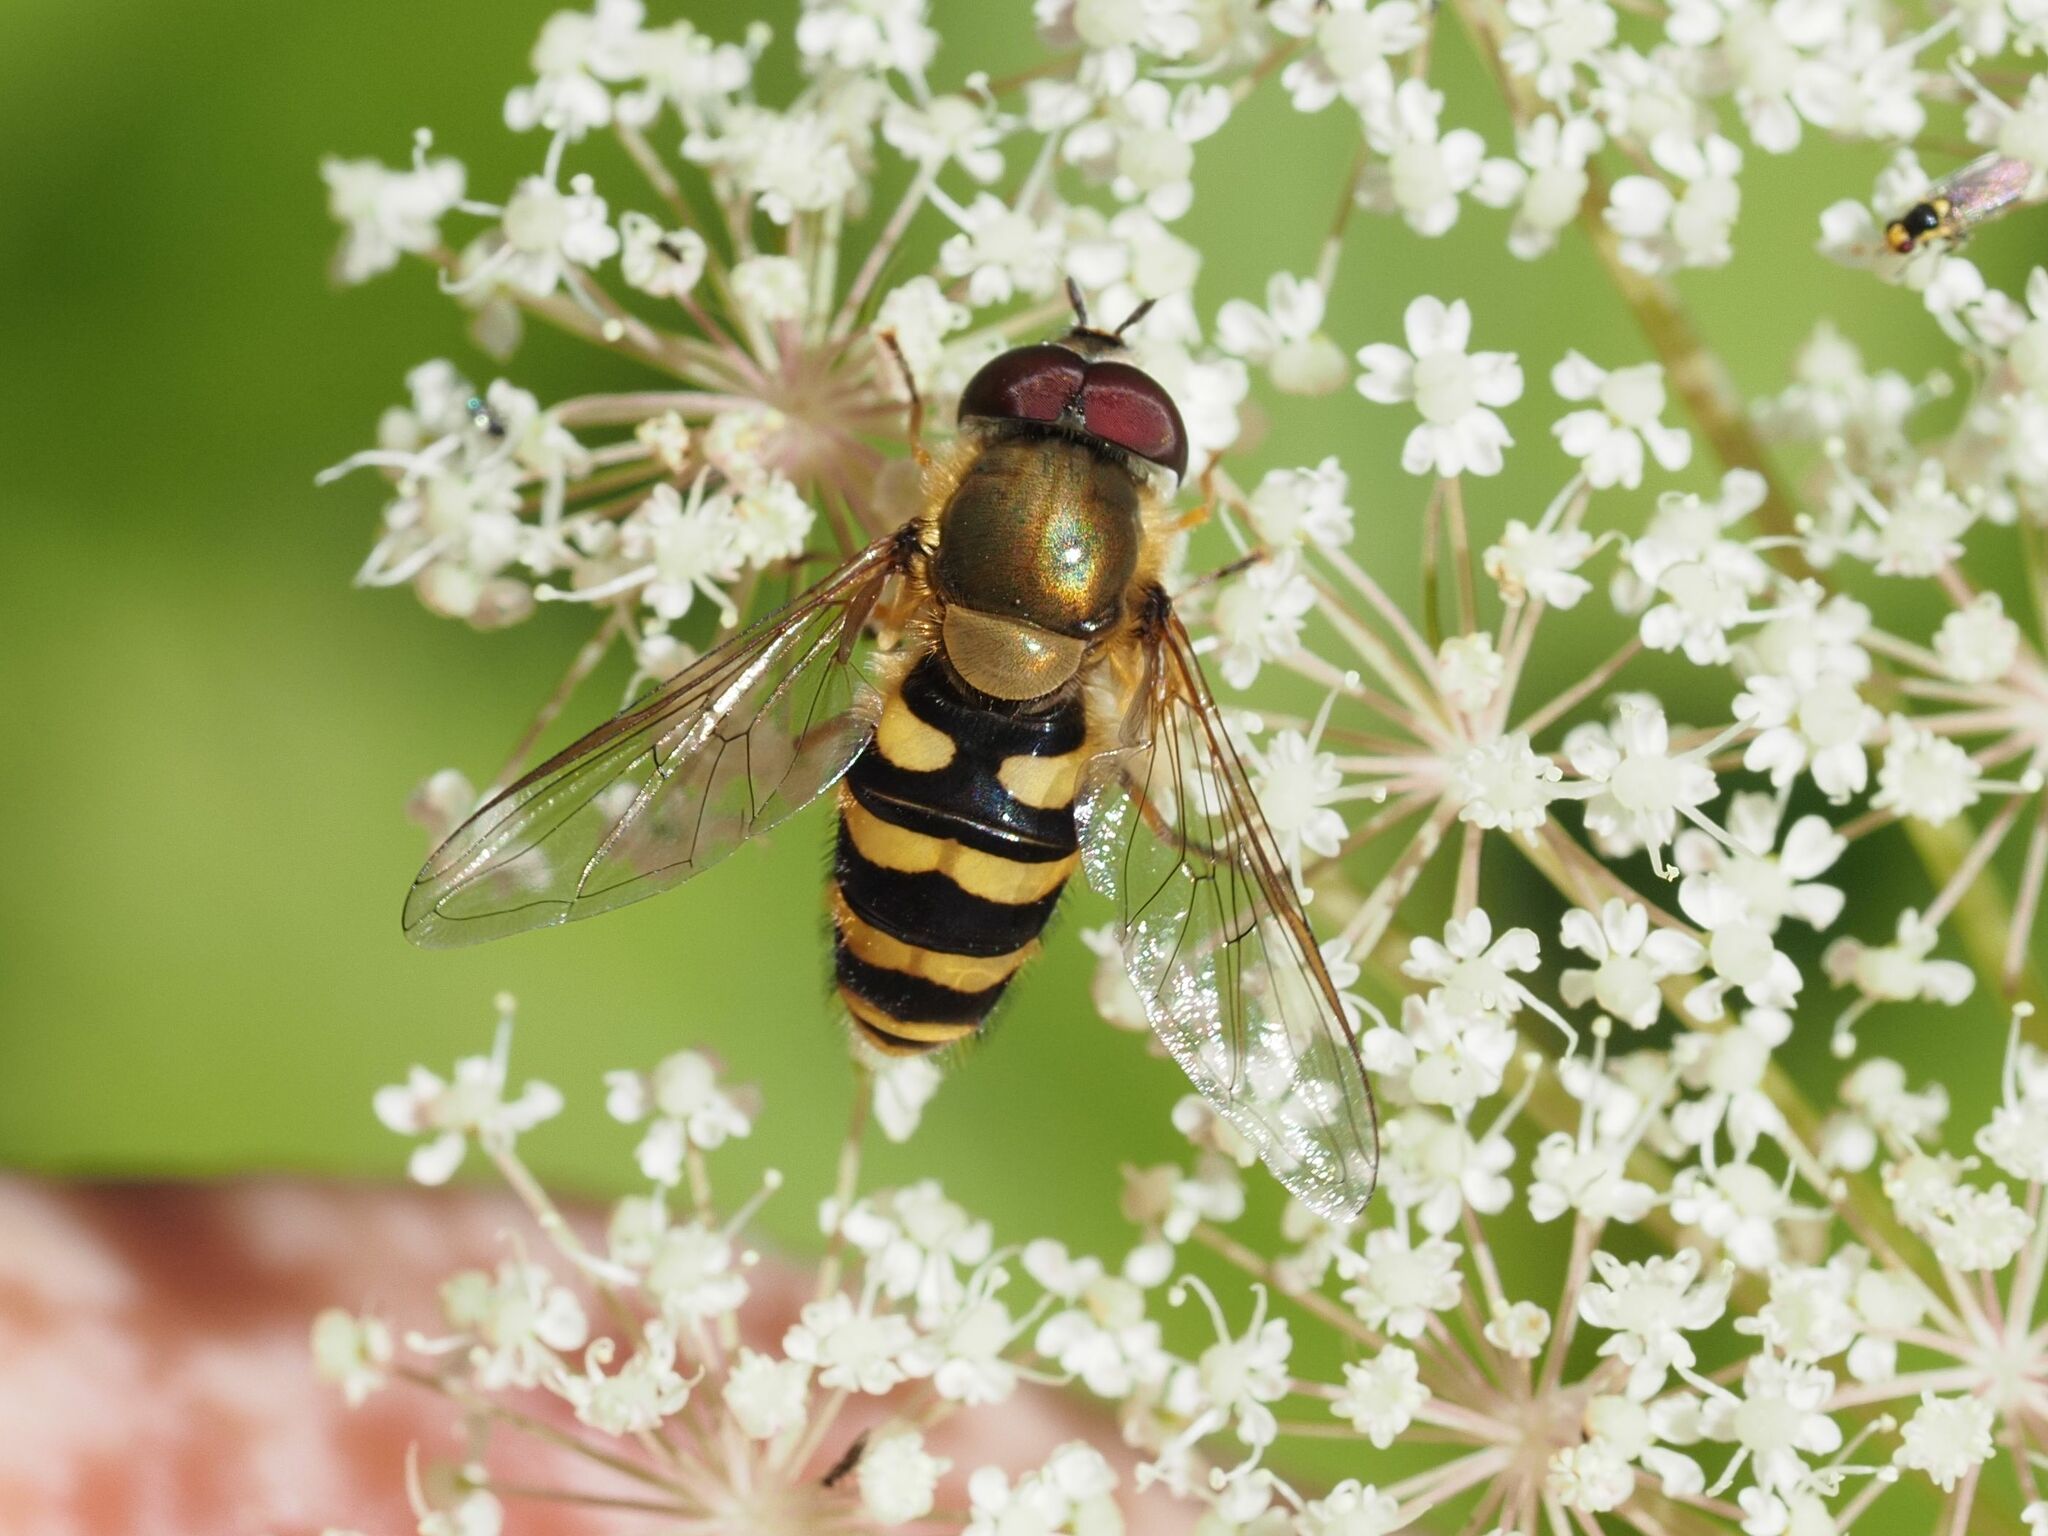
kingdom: Animalia
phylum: Arthropoda
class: Insecta
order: Diptera
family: Syrphidae
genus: Syrphus
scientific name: Syrphus
